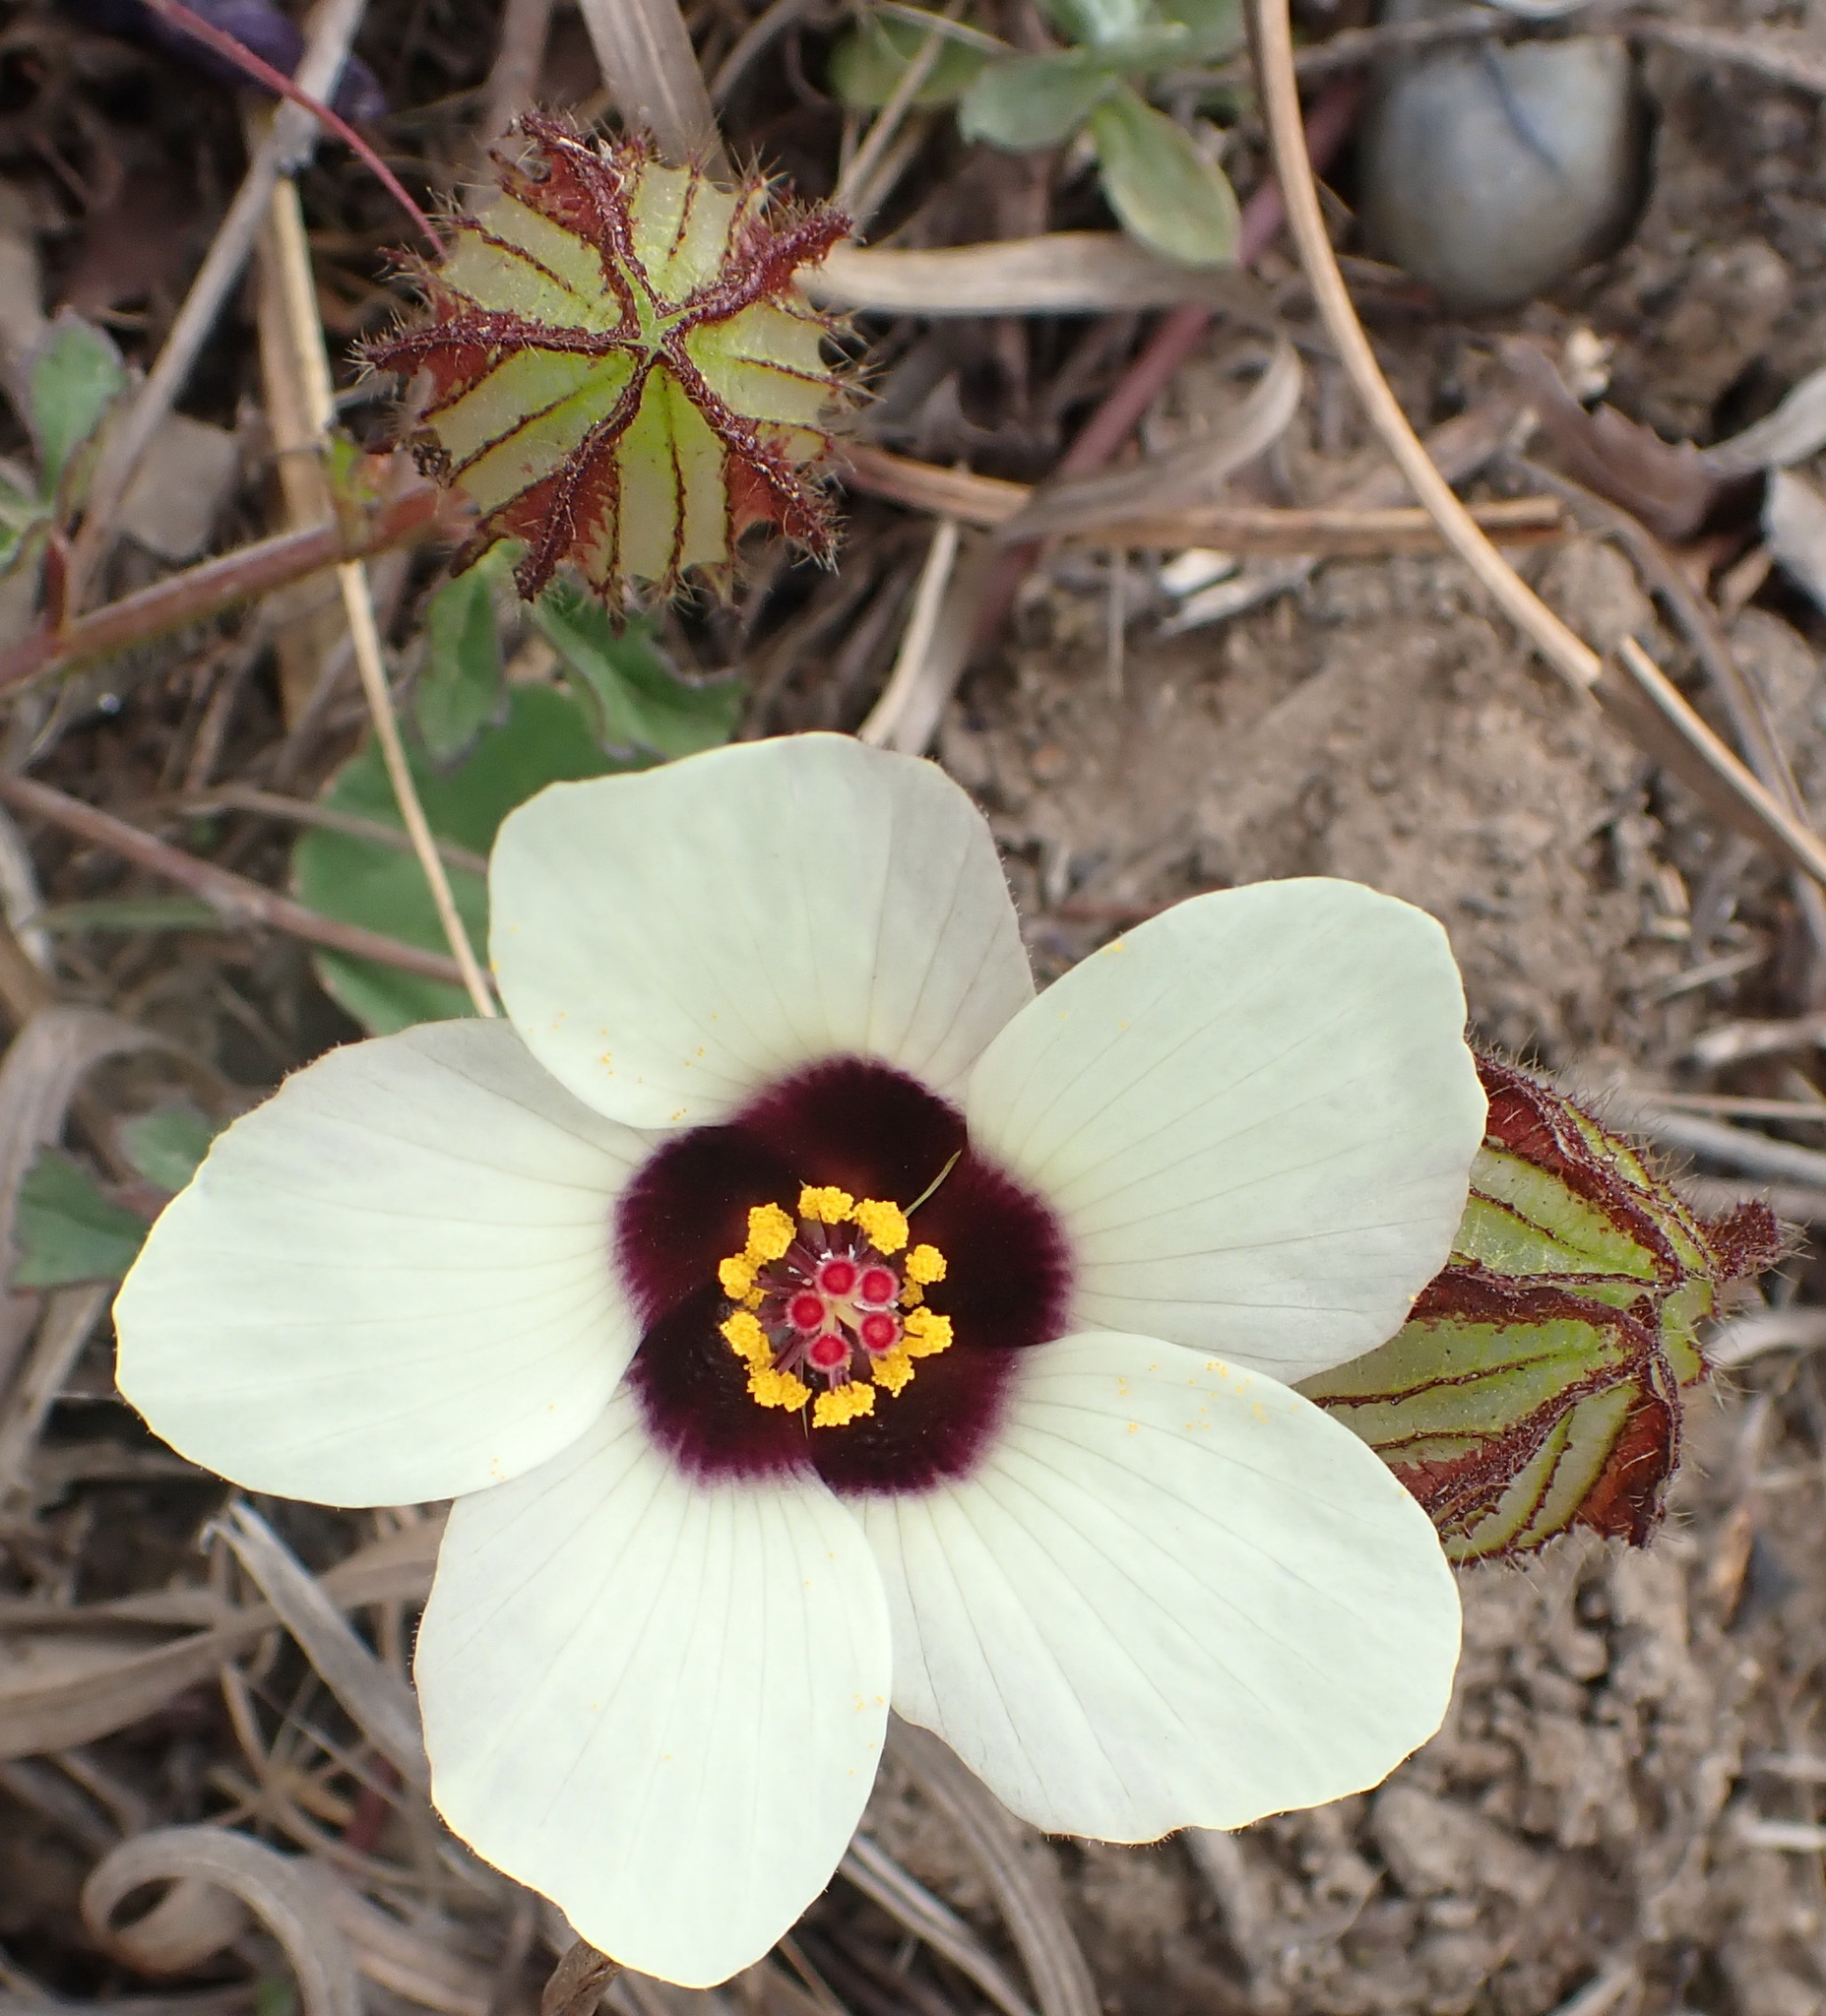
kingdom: Plantae
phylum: Tracheophyta
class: Magnoliopsida
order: Malvales
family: Malvaceae
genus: Hibiscus
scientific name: Hibiscus trionum
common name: Bladder ketmia
